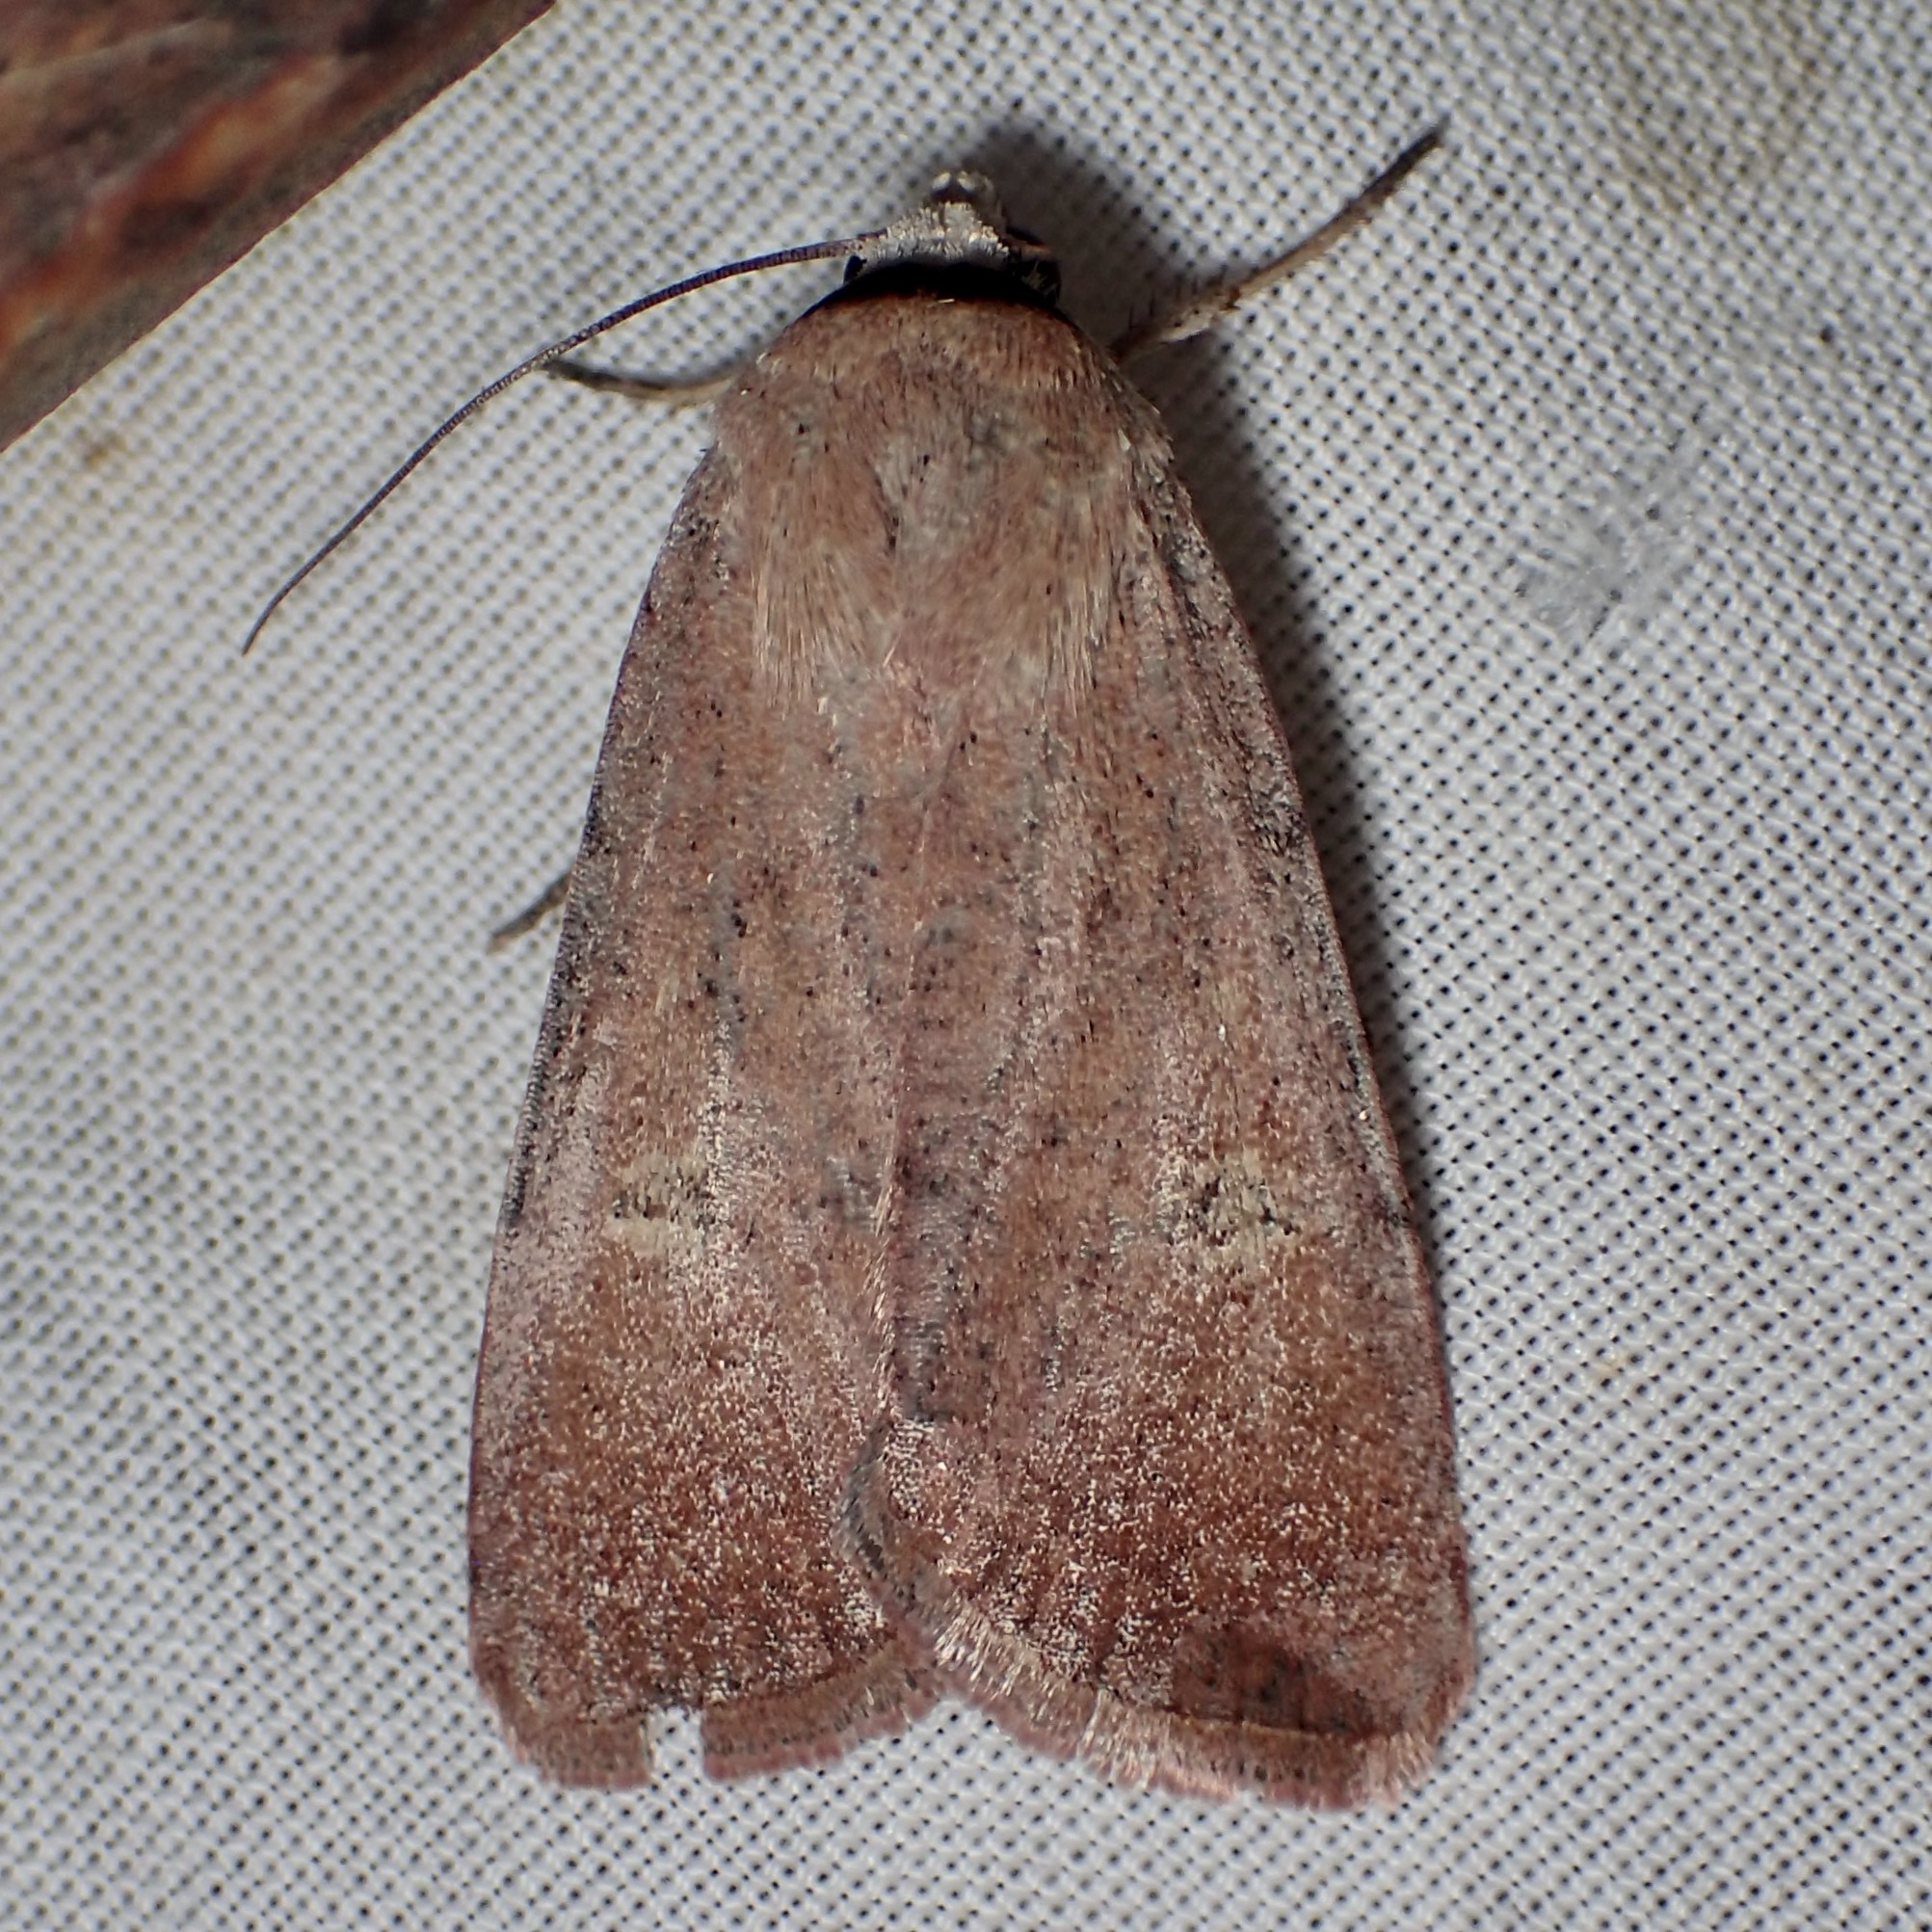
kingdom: Animalia
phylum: Arthropoda
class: Insecta
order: Lepidoptera
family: Noctuidae
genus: Anicla
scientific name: Anicla biformata
